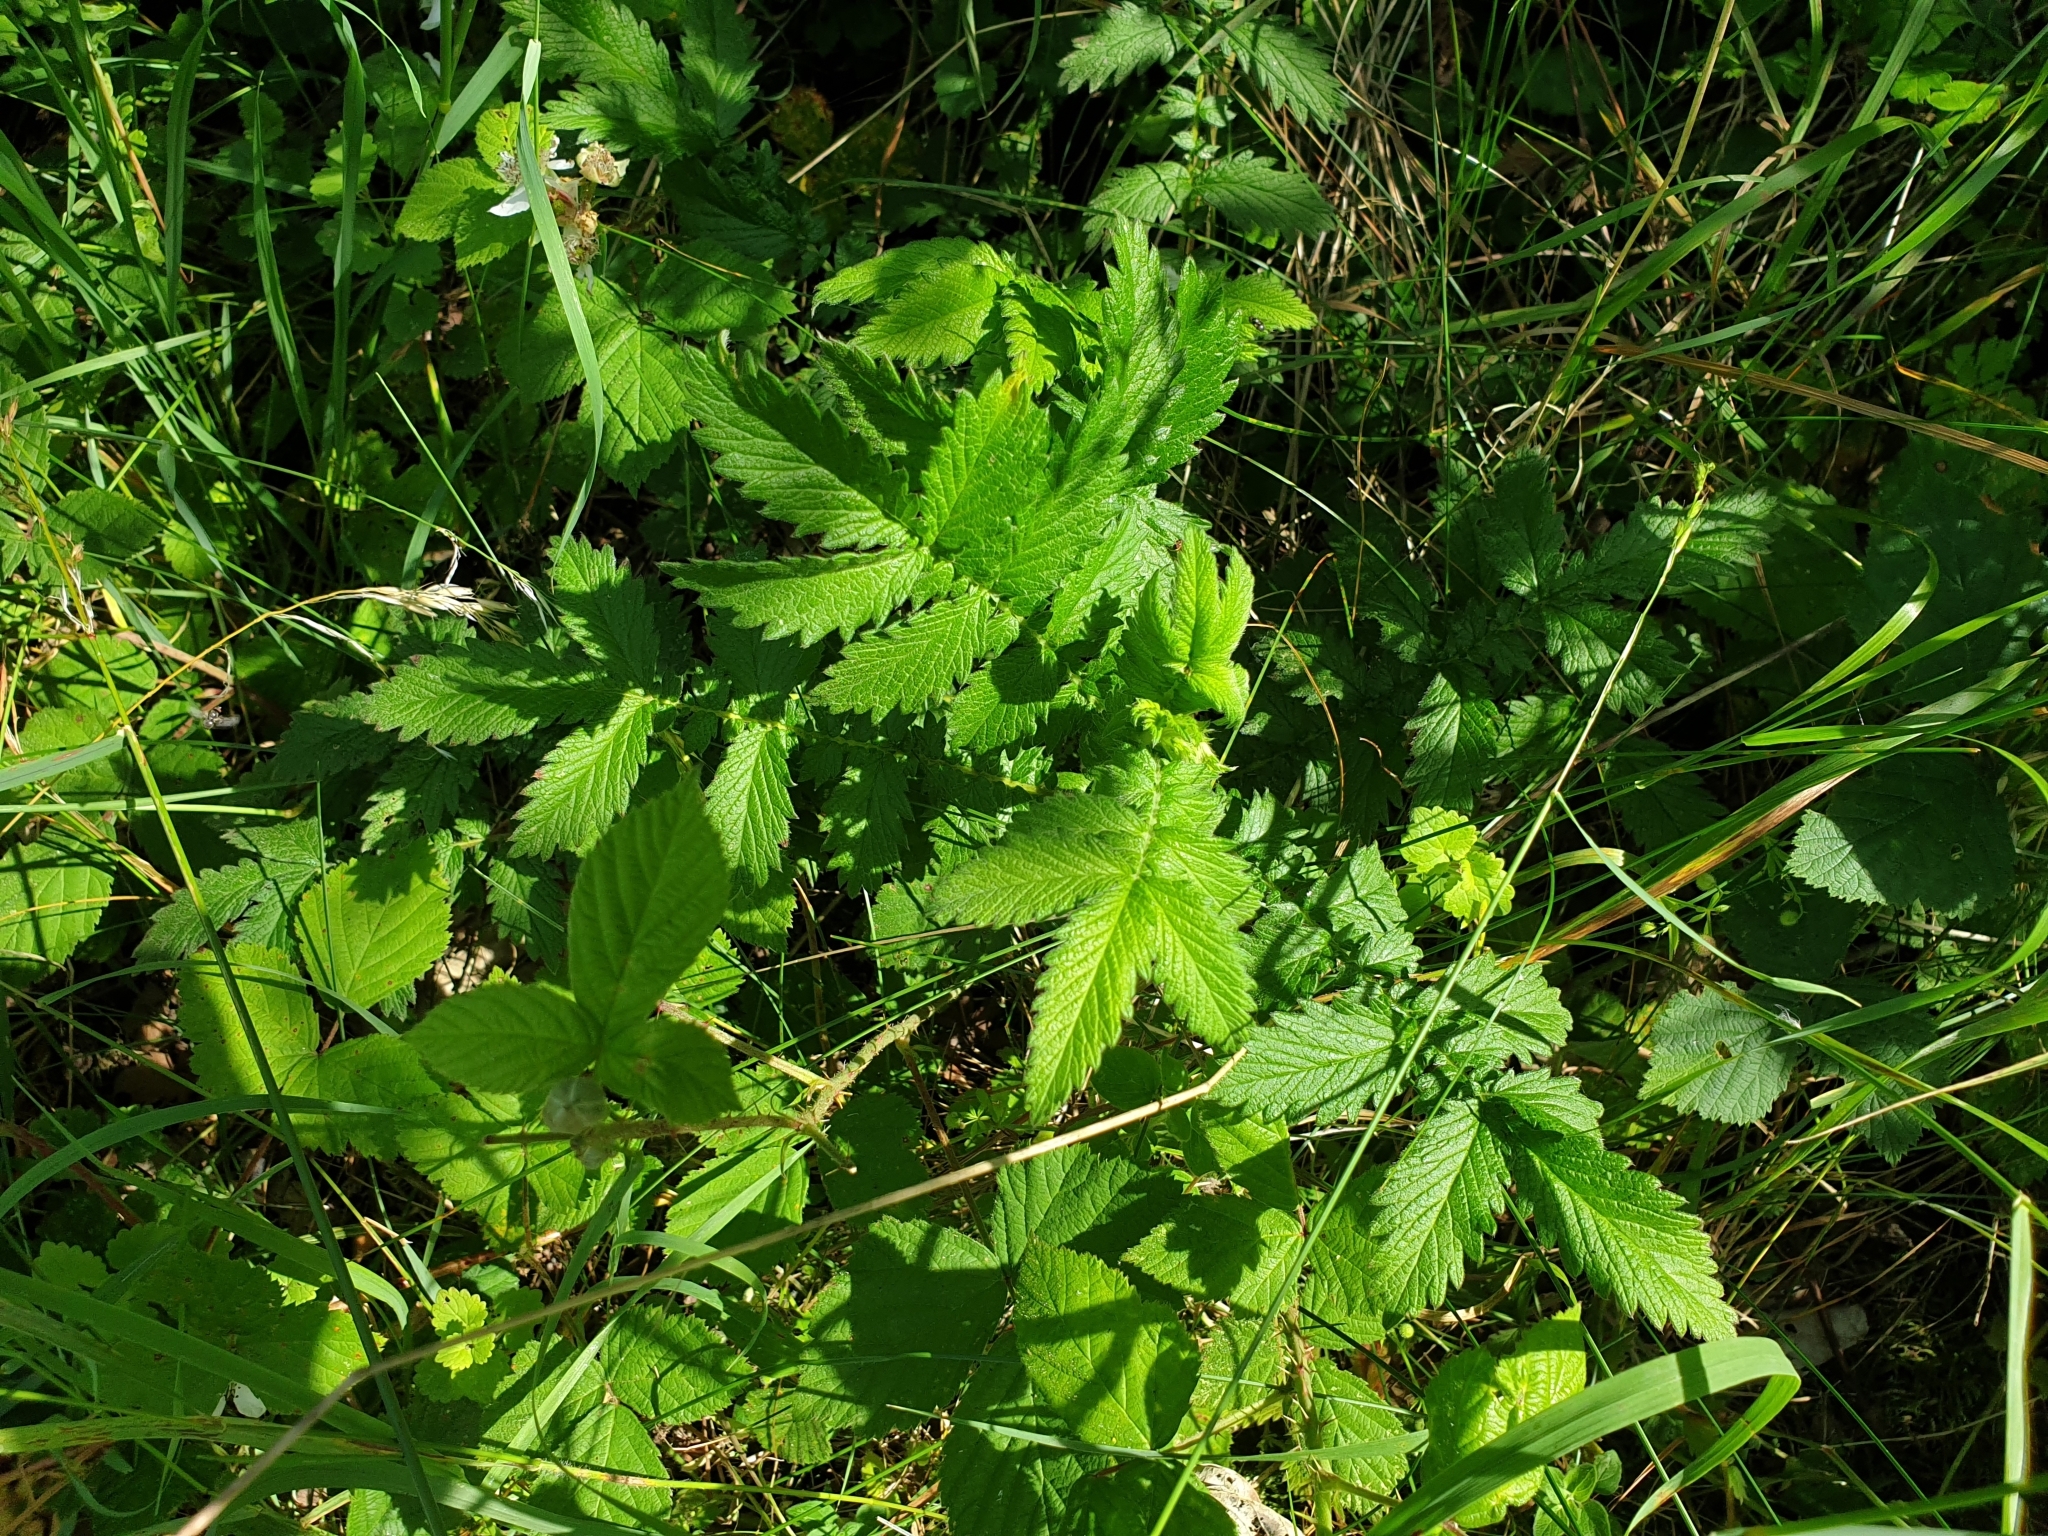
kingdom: Plantae
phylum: Tracheophyta
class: Magnoliopsida
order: Rosales
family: Rosaceae
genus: Agrimonia
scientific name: Agrimonia eupatoria
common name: Agrimony
